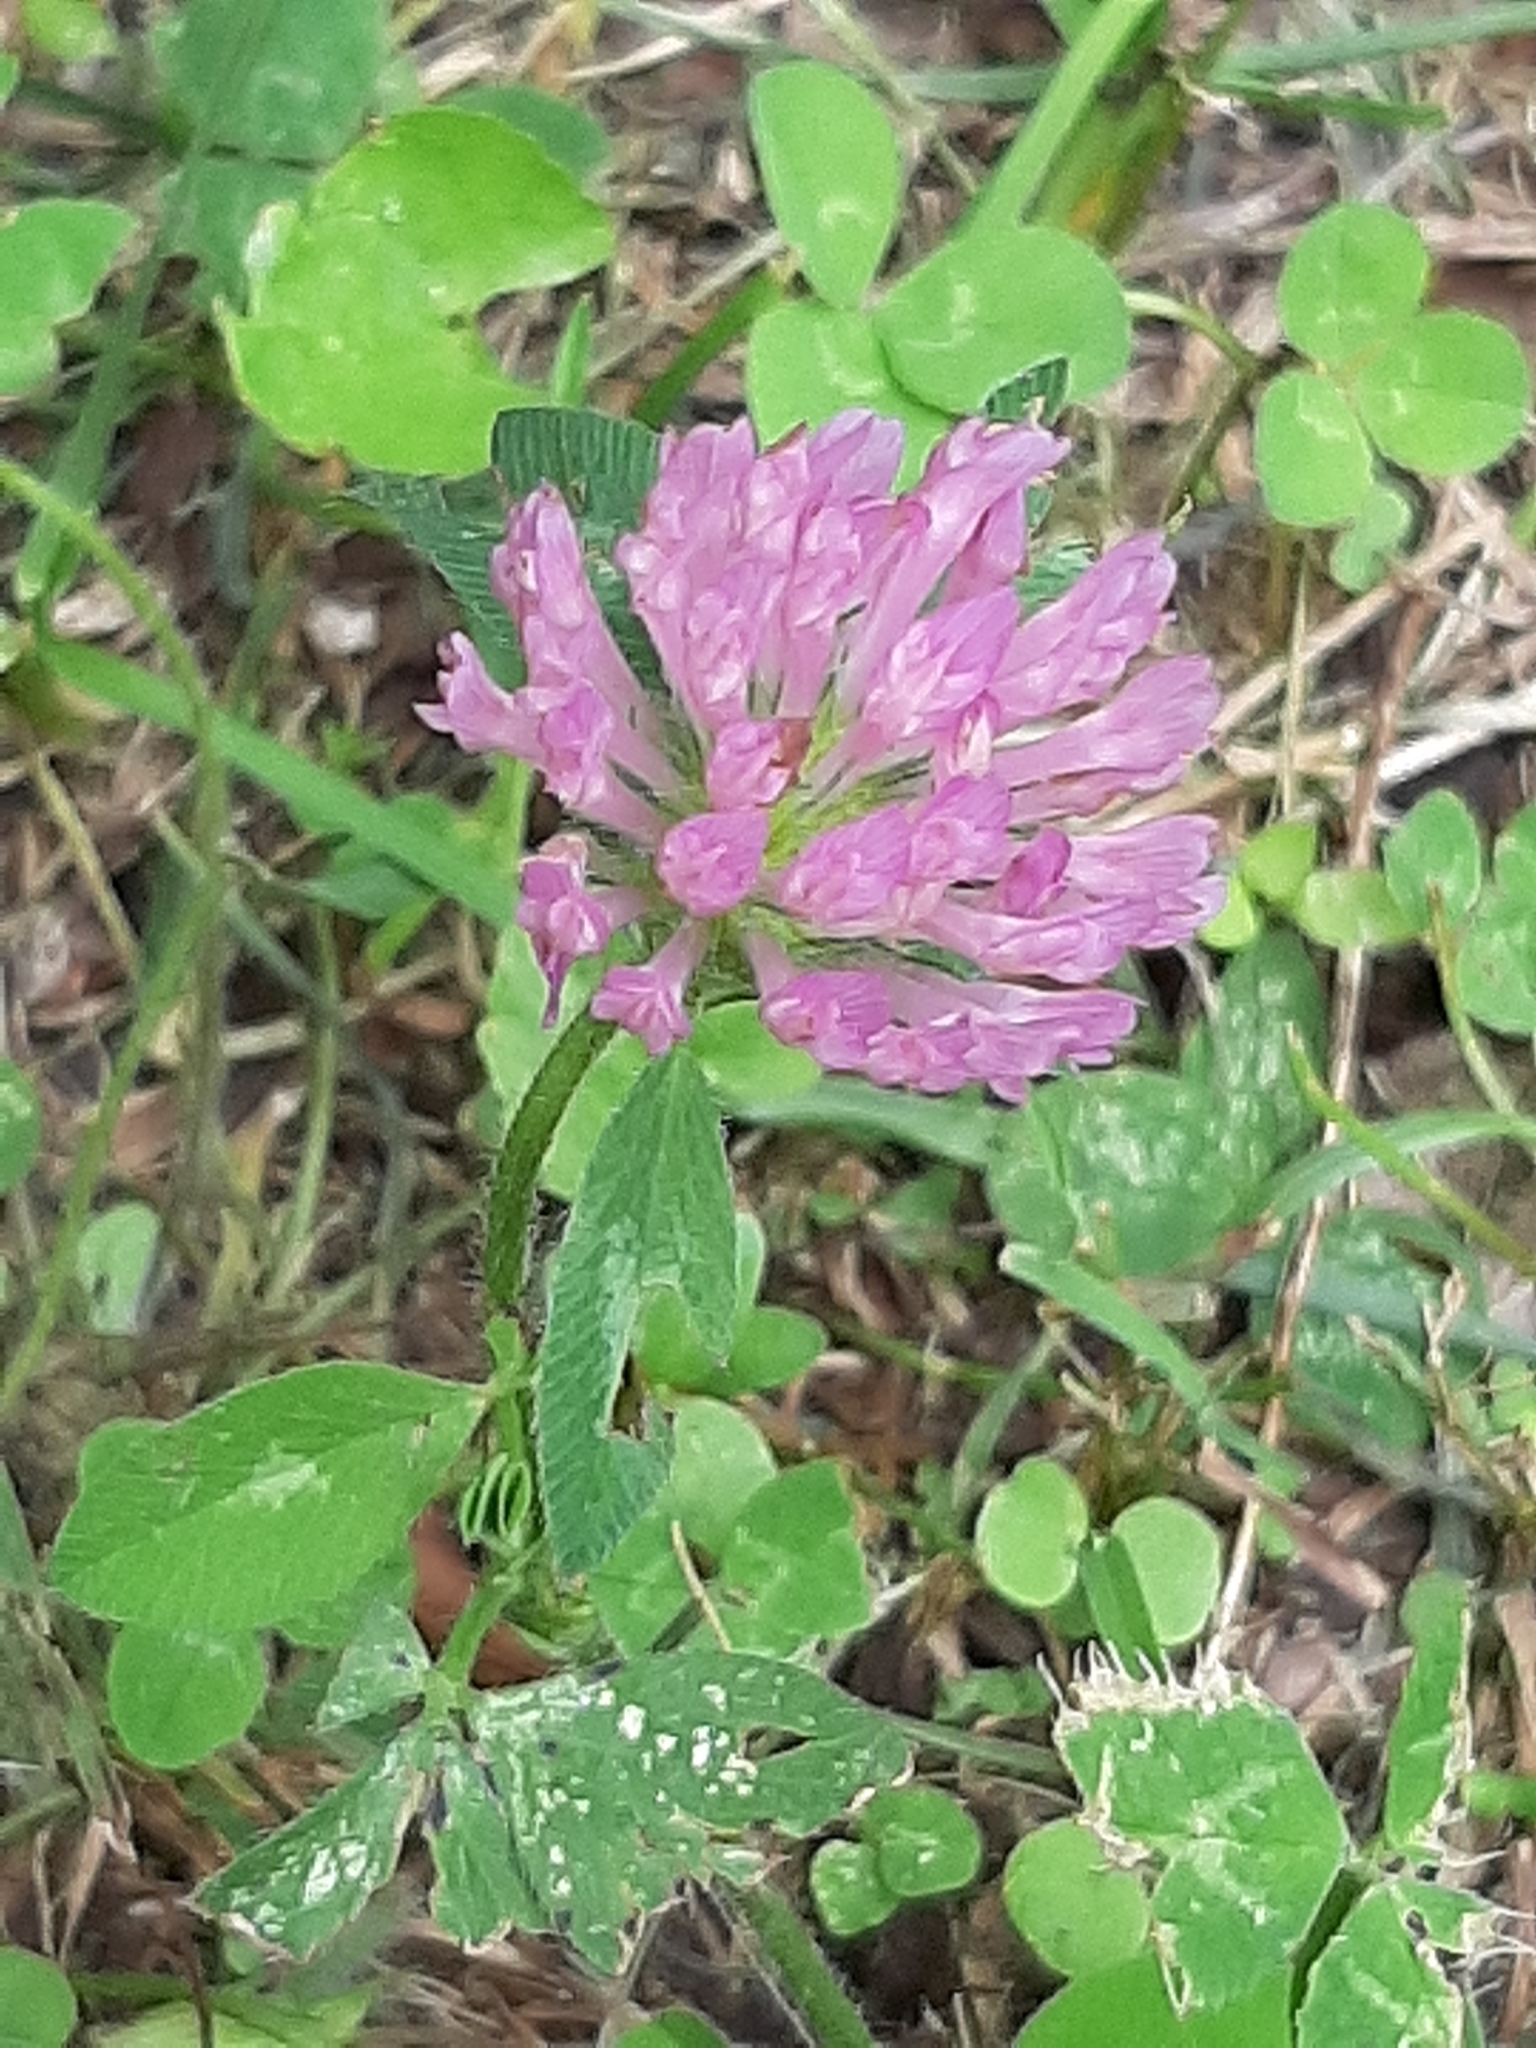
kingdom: Plantae
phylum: Tracheophyta
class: Magnoliopsida
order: Fabales
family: Fabaceae
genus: Trifolium
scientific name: Trifolium pratense
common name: Red clover
